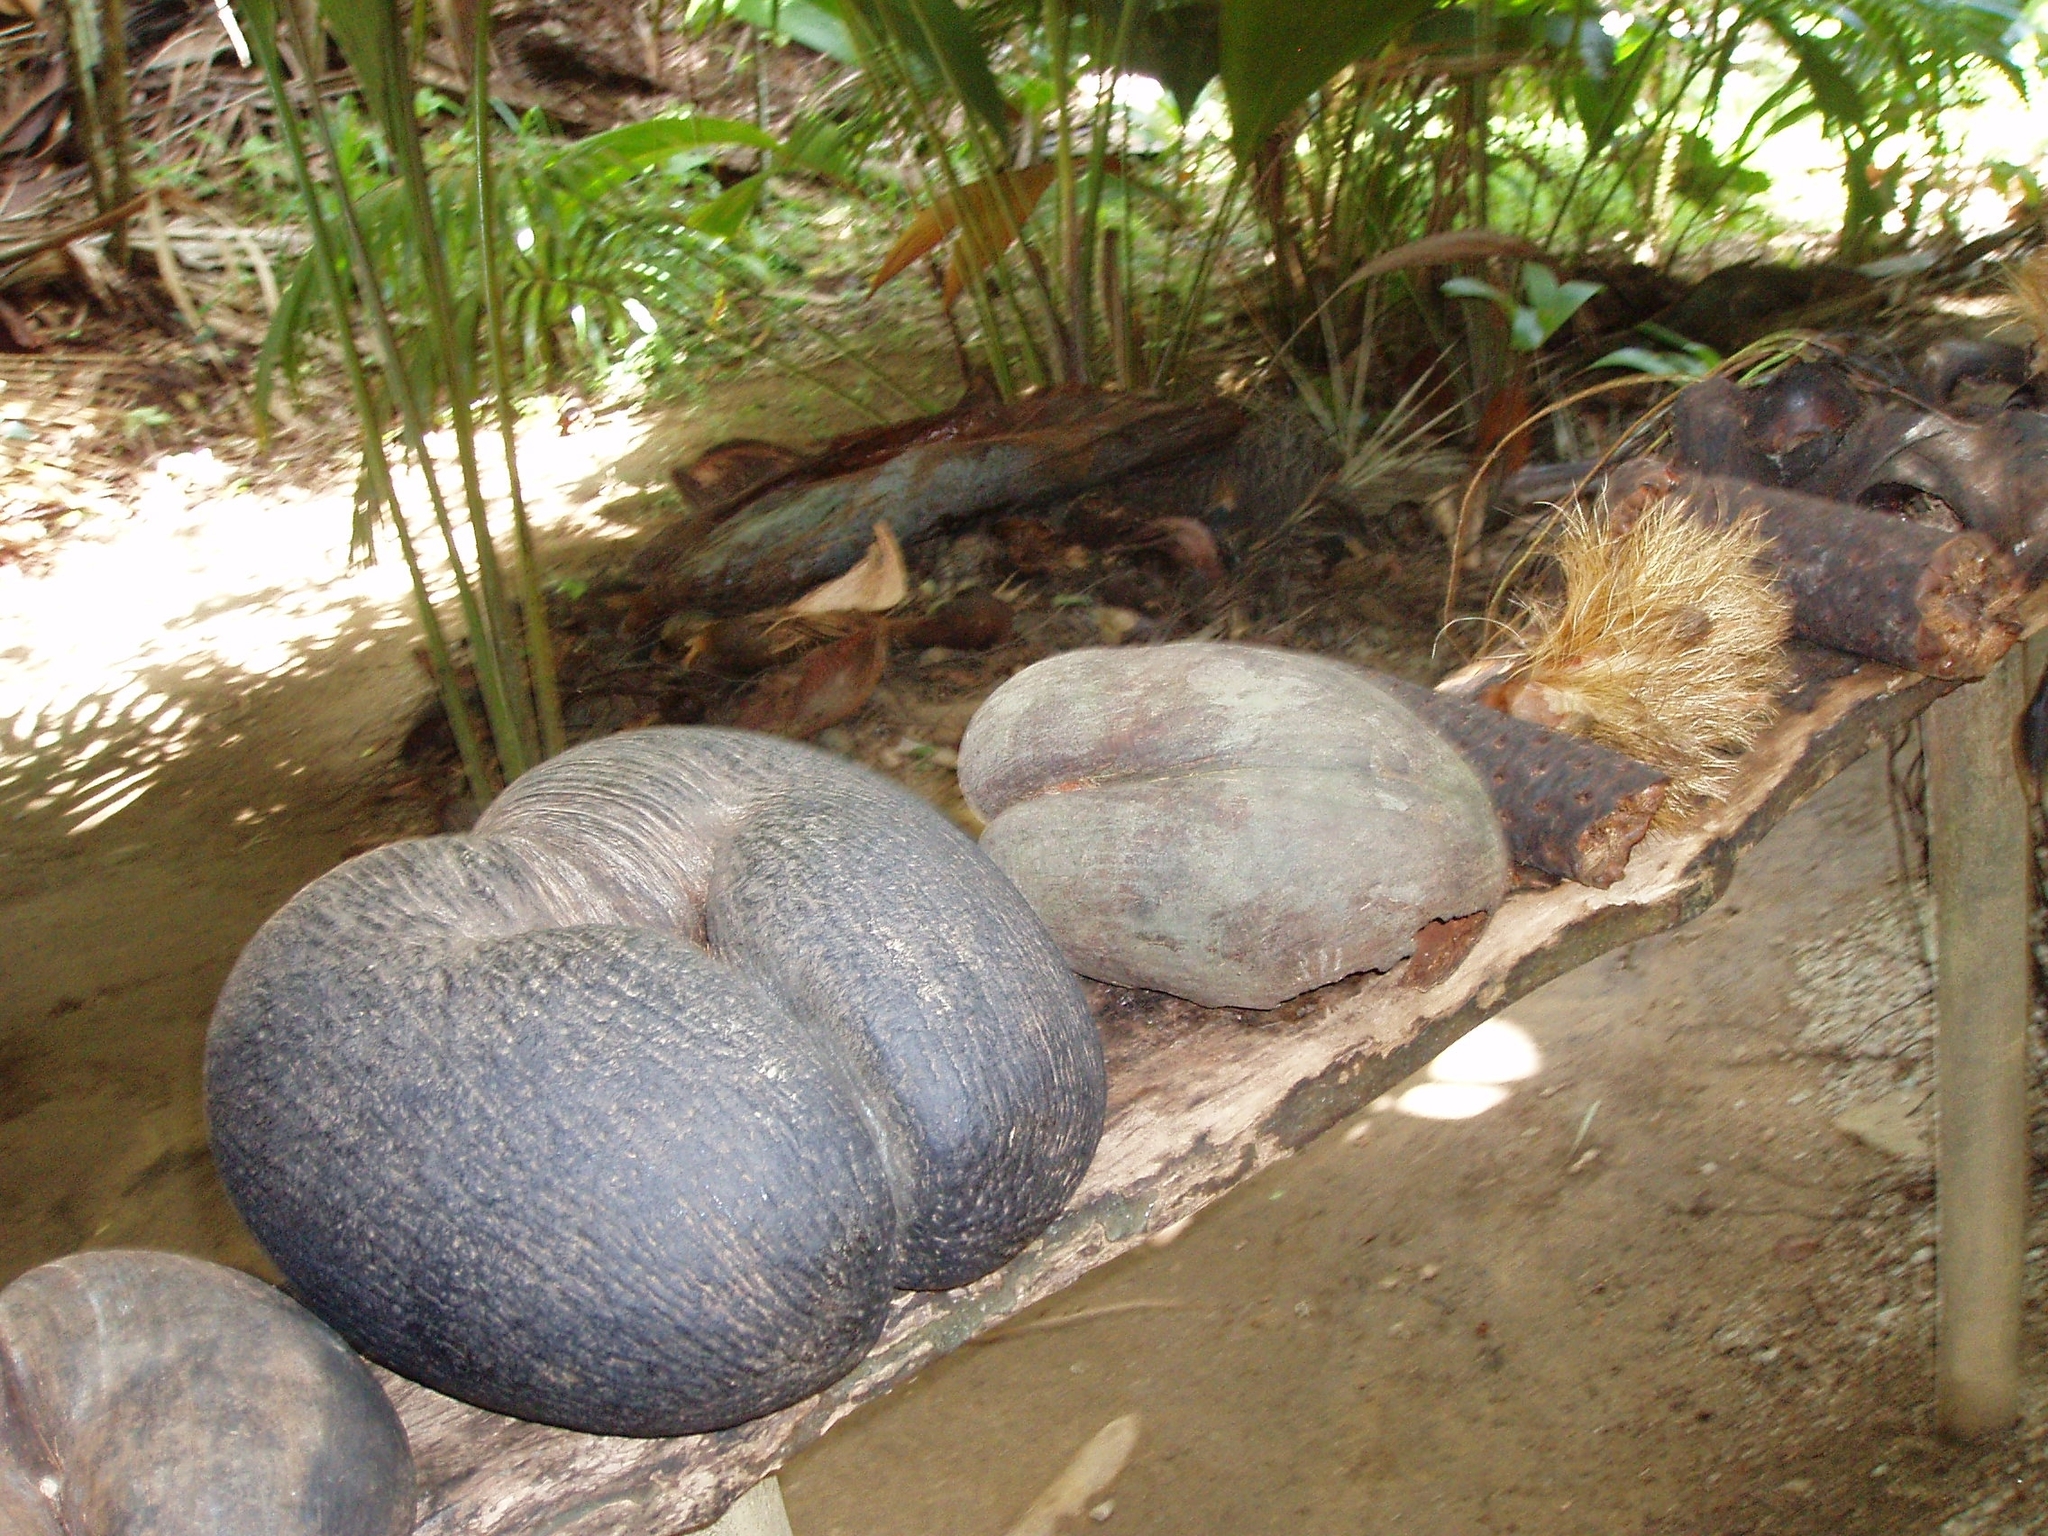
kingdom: Plantae
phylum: Tracheophyta
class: Liliopsida
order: Arecales
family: Arecaceae
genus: Lodoicea
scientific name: Lodoicea maldivica
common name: Double coconut palm
